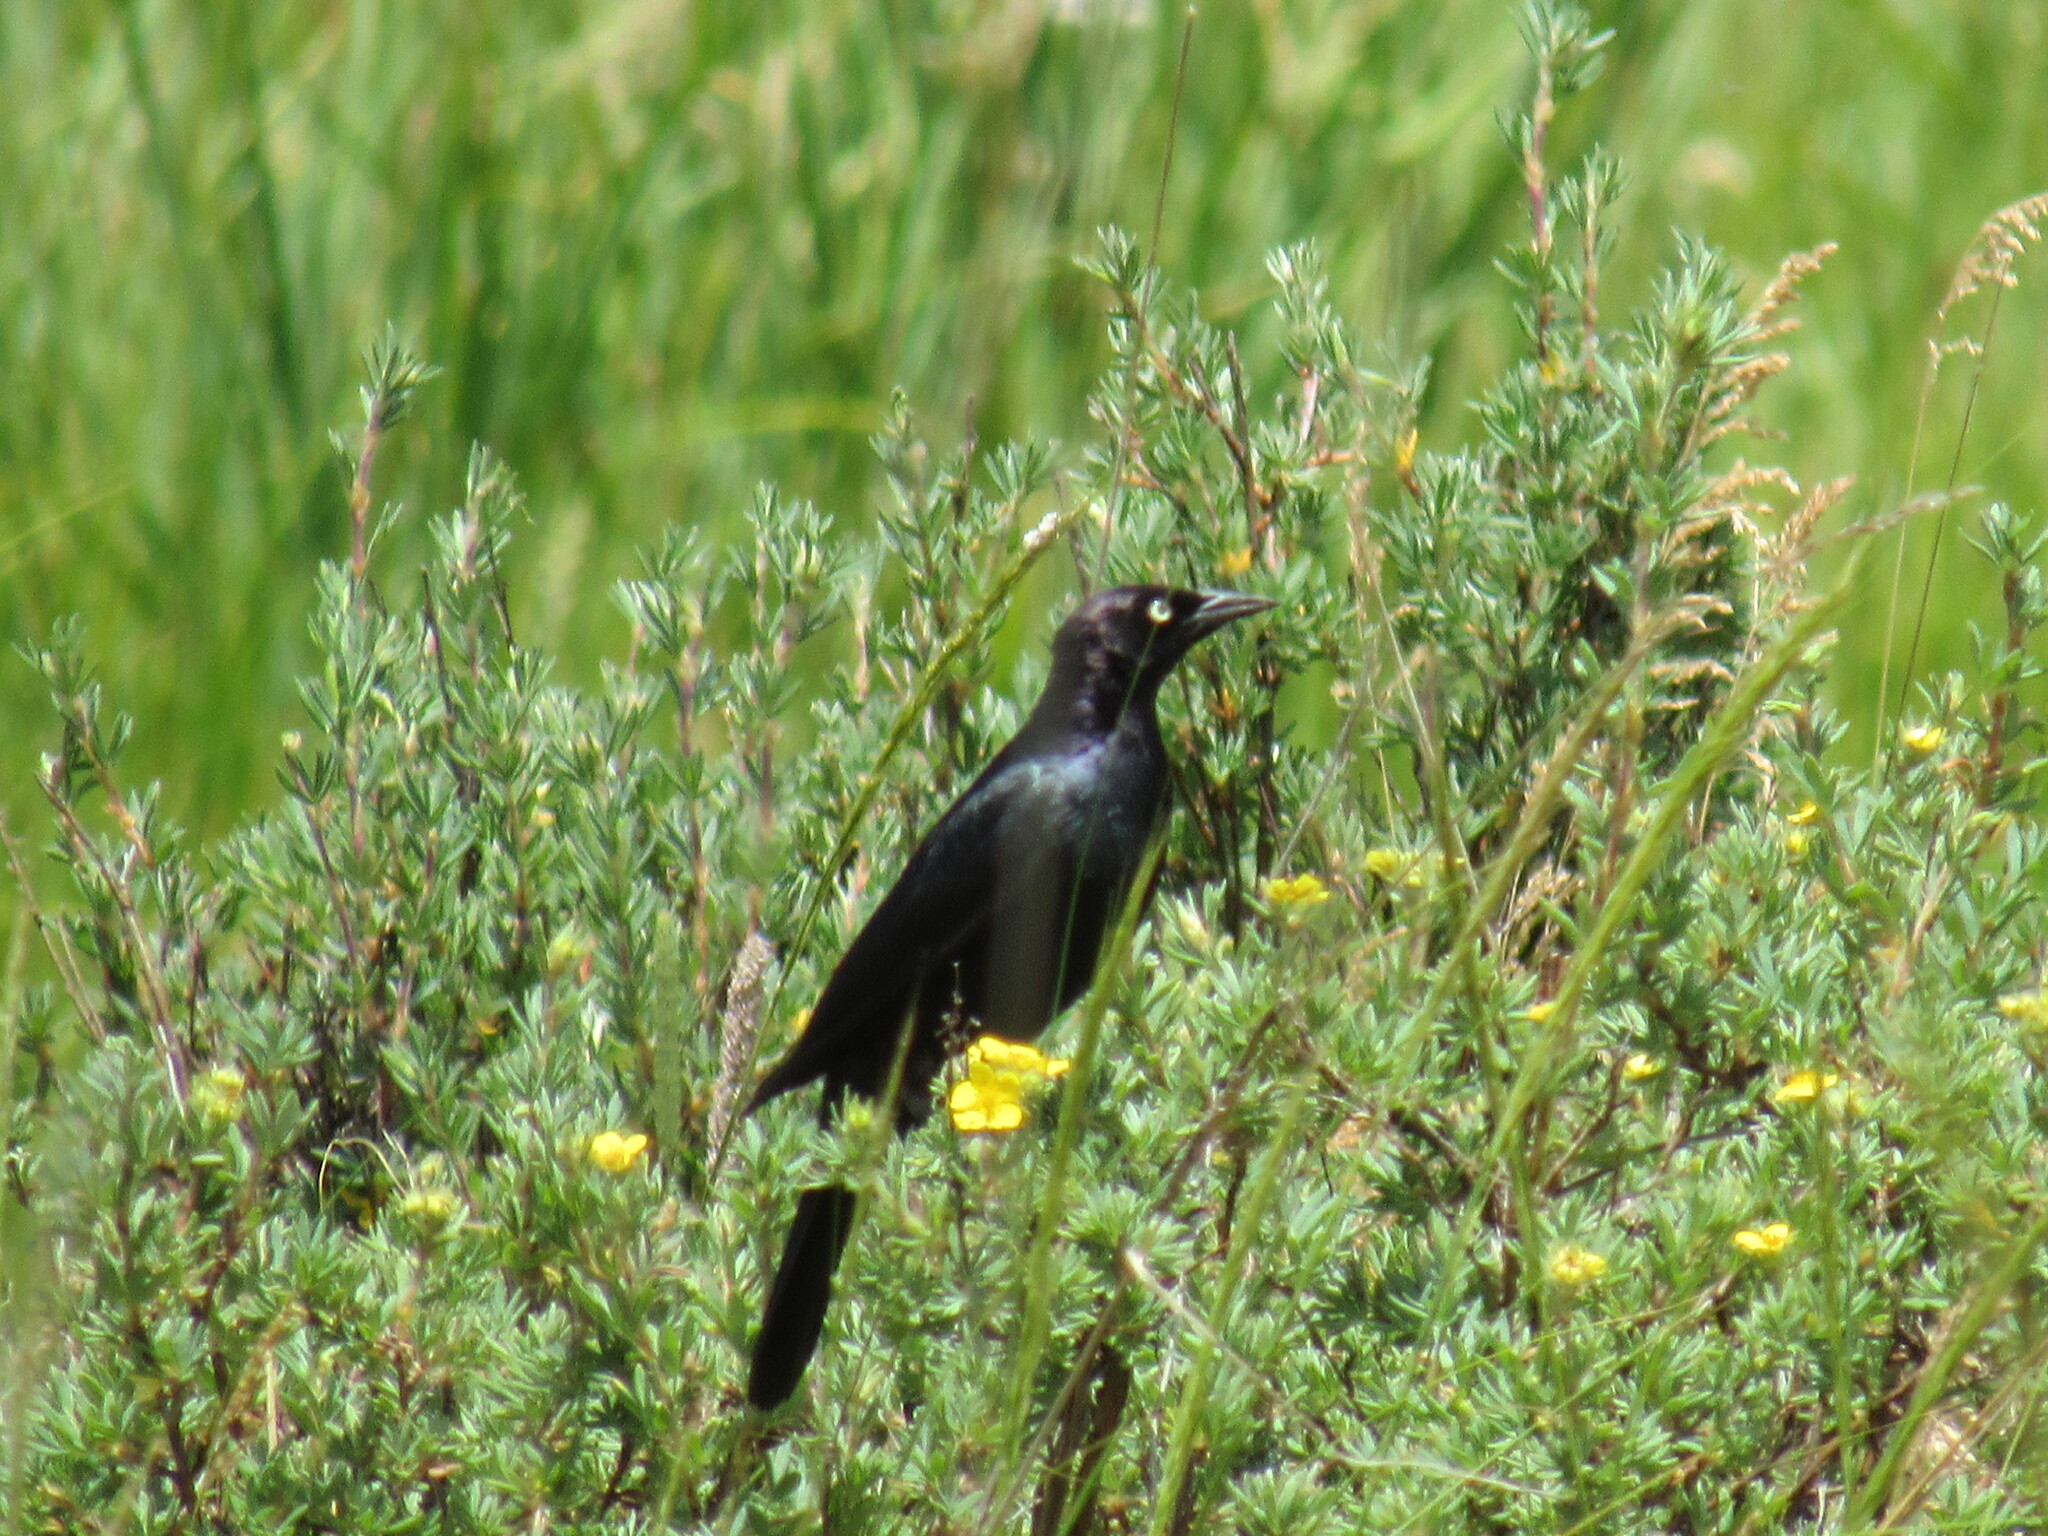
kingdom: Animalia
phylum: Chordata
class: Aves
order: Passeriformes
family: Icteridae
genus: Euphagus
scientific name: Euphagus cyanocephalus
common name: Brewer's blackbird
